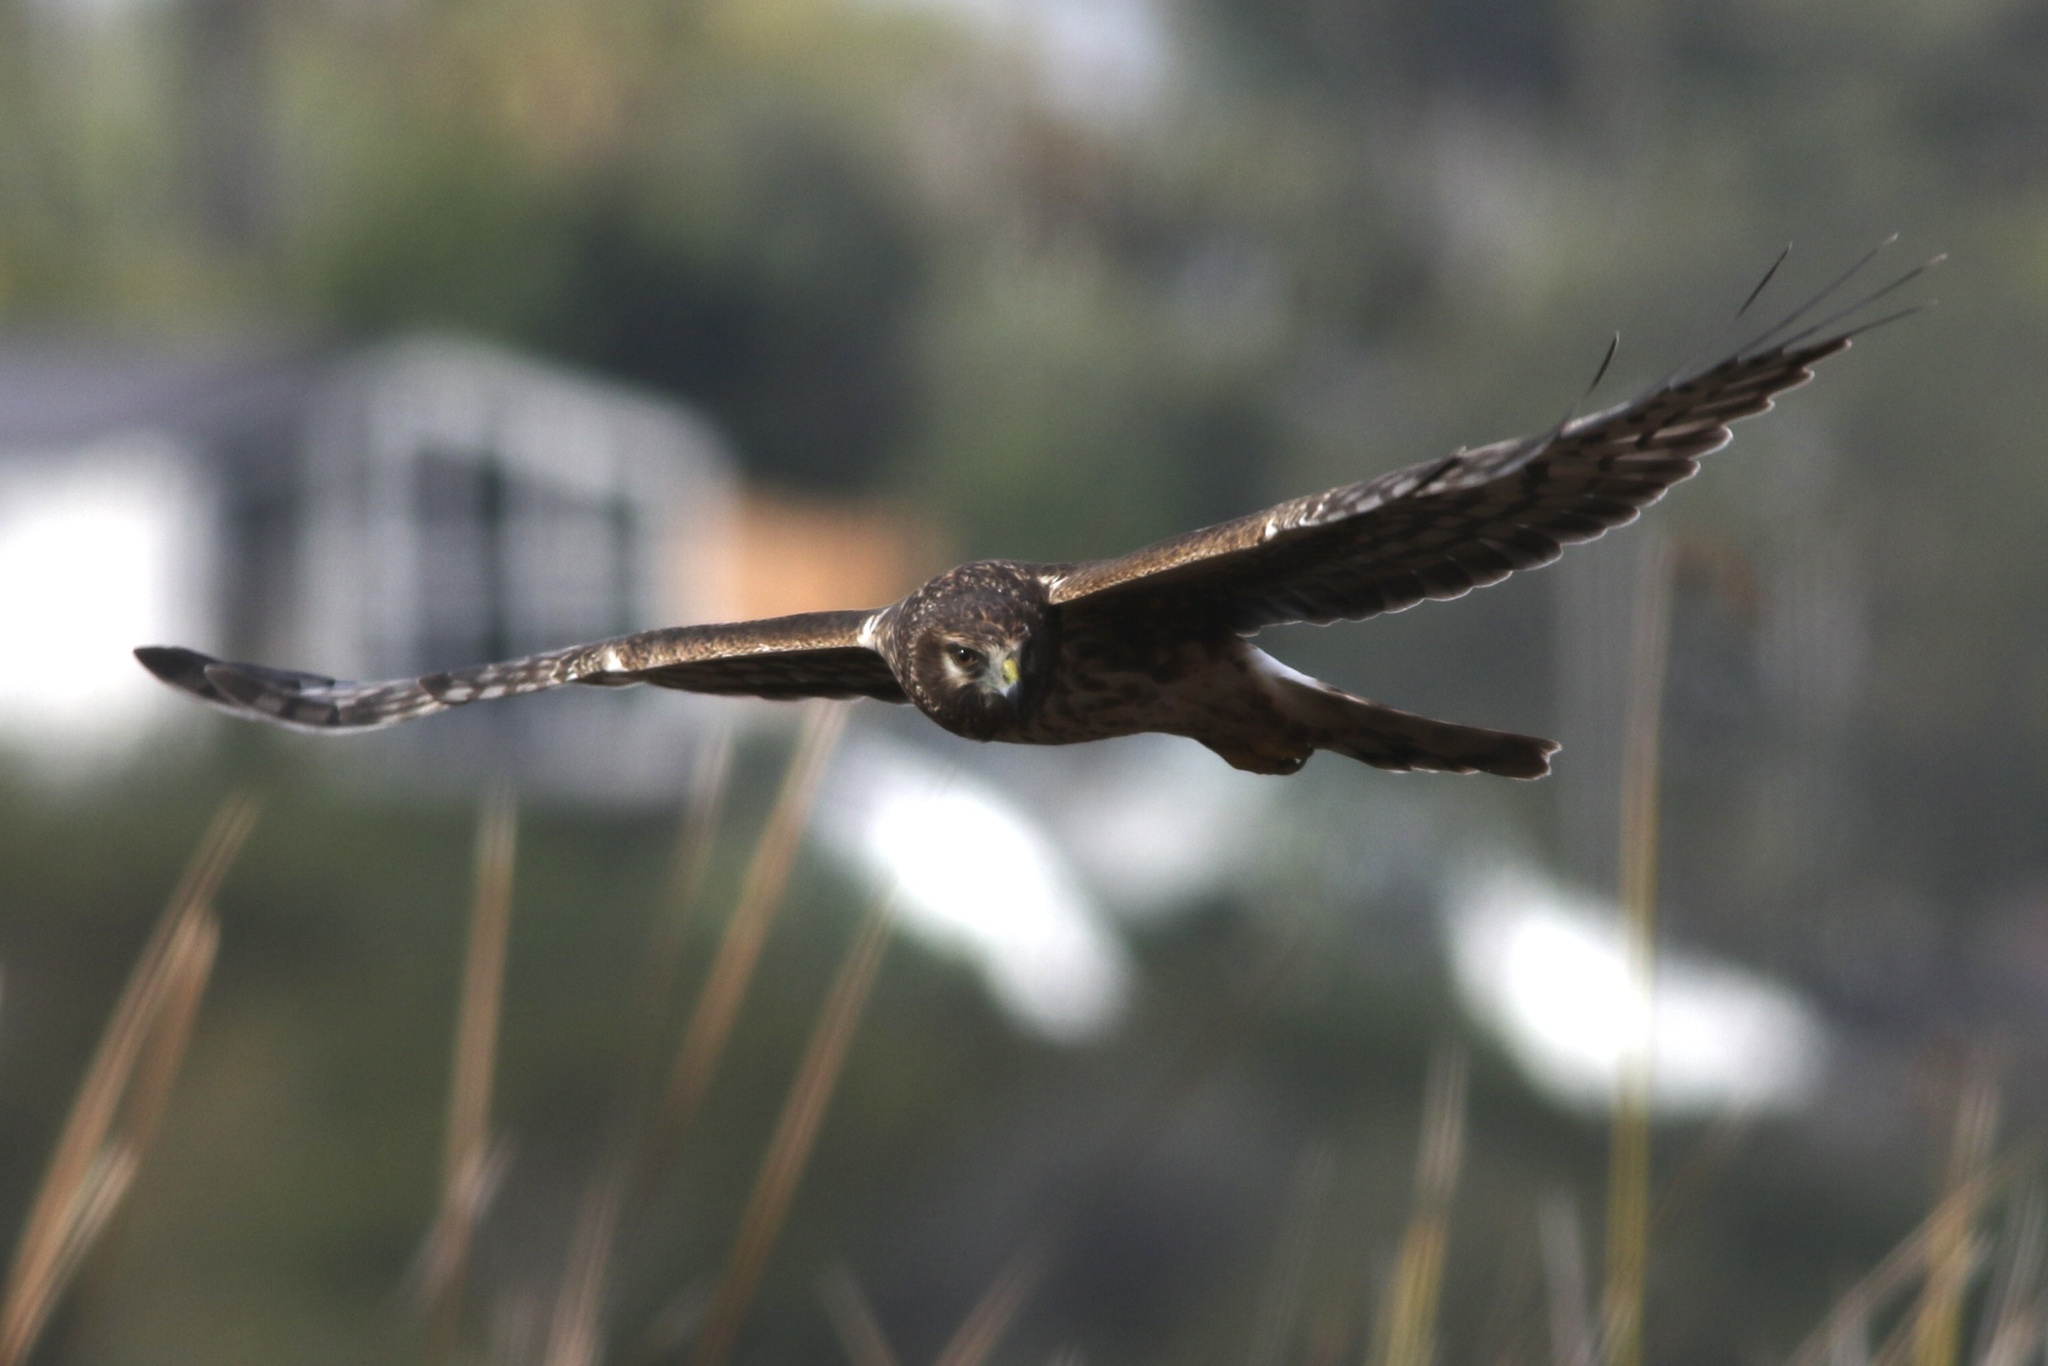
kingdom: Animalia
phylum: Chordata
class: Aves
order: Accipitriformes
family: Accipitridae
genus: Circus
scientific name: Circus cyaneus
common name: Hen harrier
